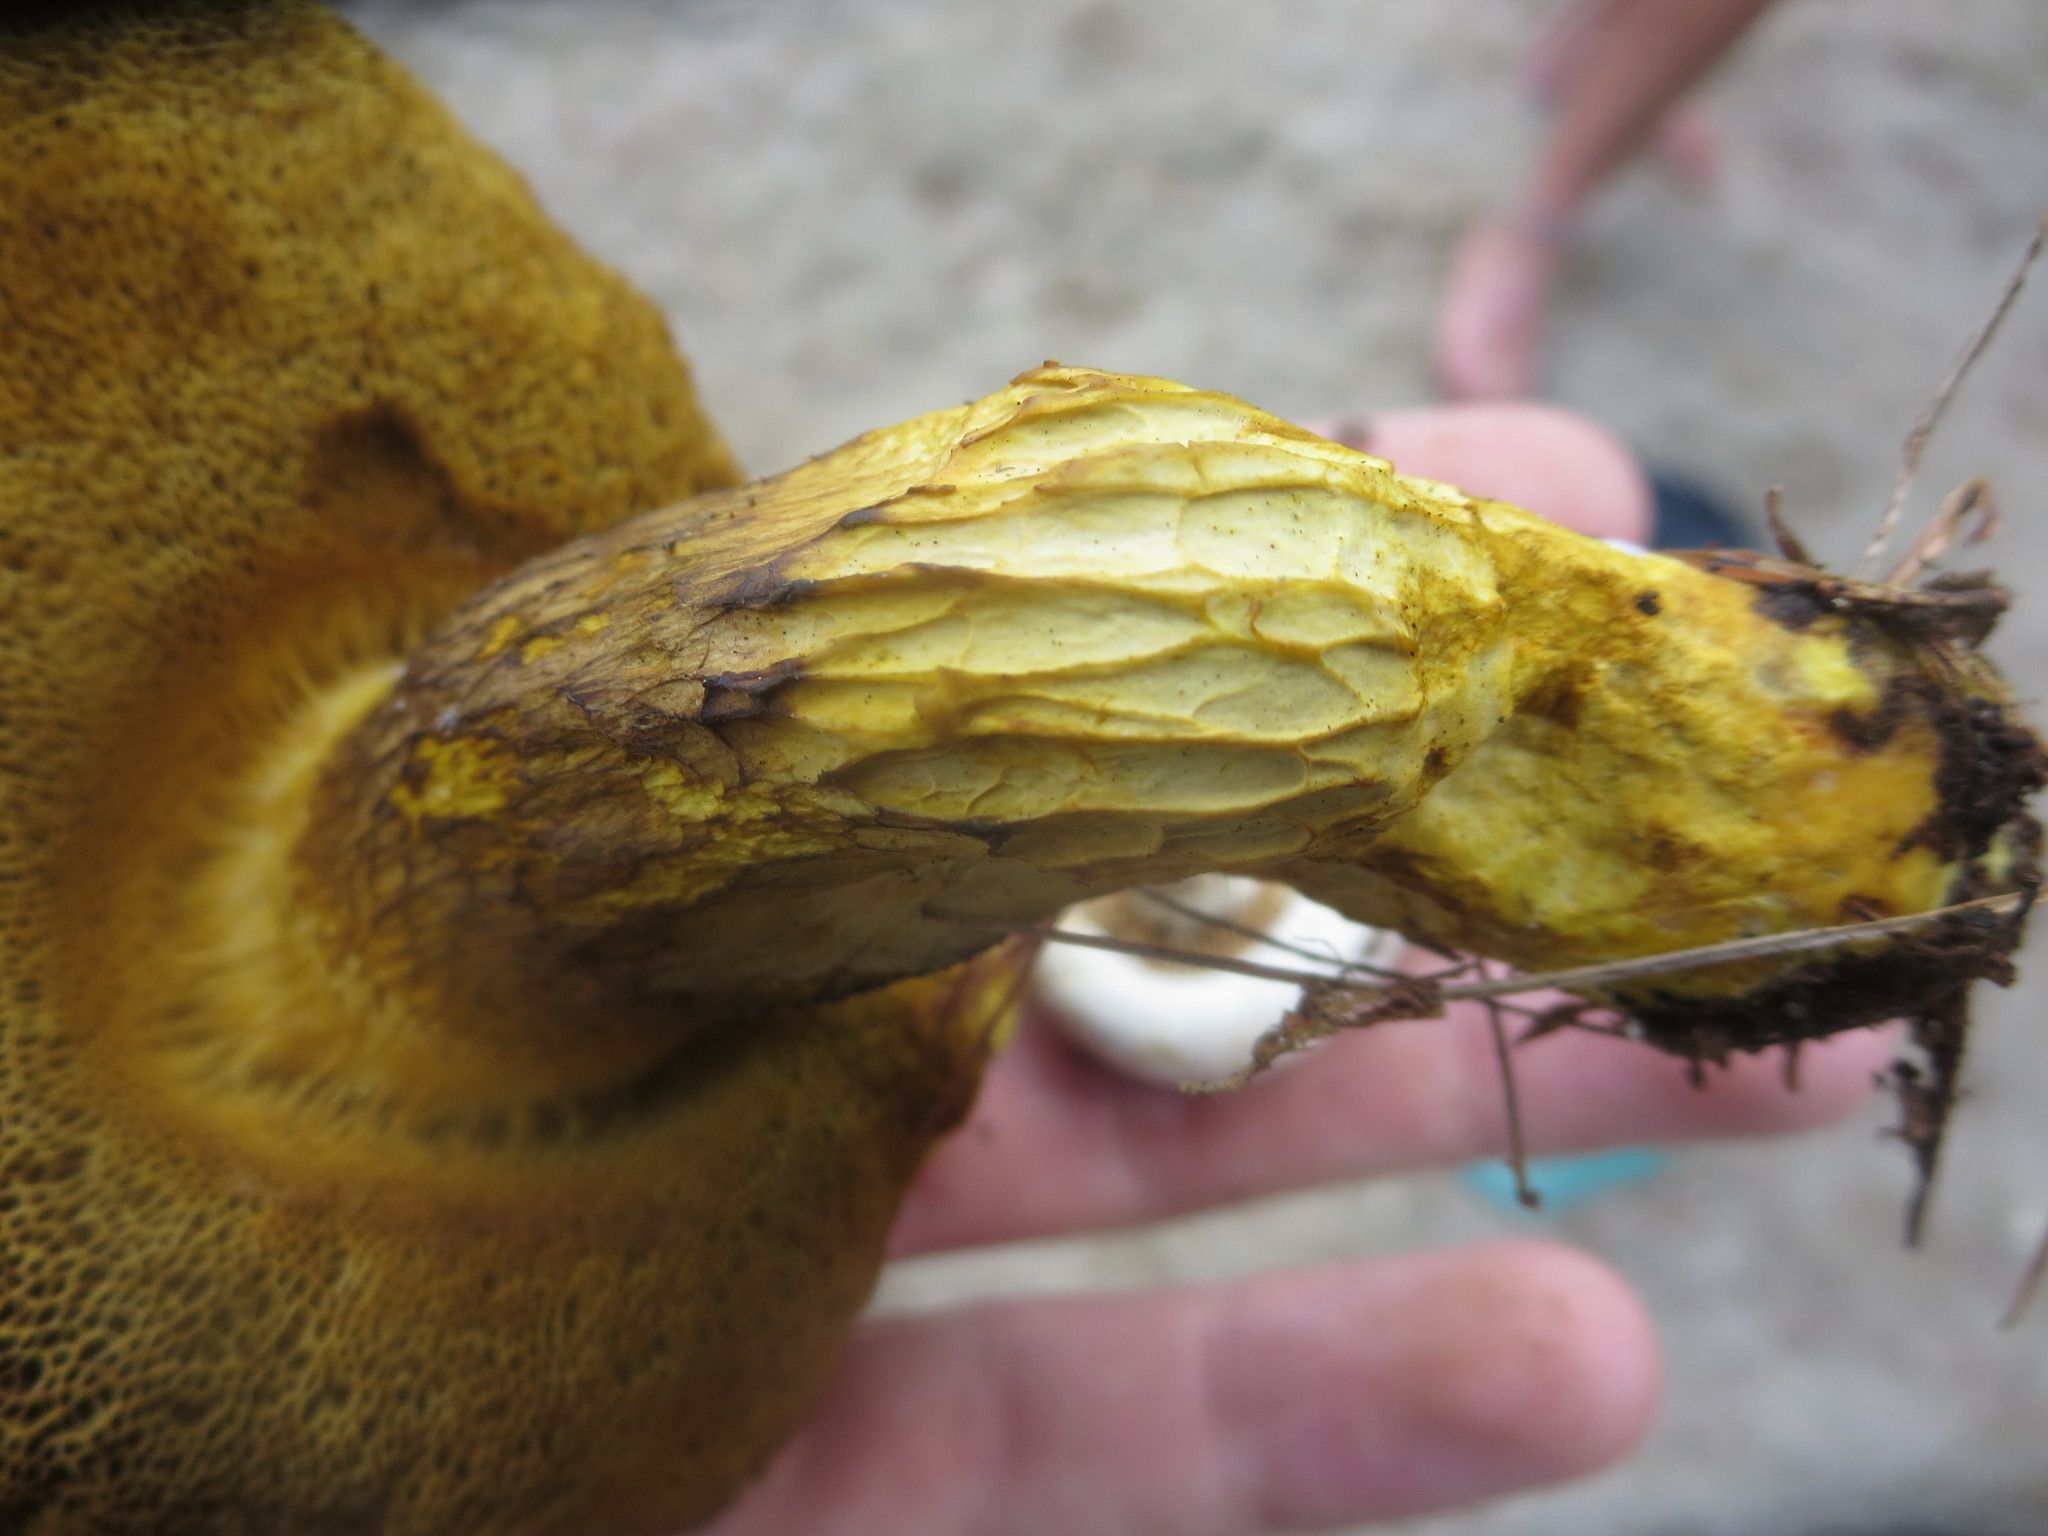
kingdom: Fungi
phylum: Basidiomycota
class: Agaricomycetes
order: Boletales
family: Boletaceae
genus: Retiboletus
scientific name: Retiboletus ornatipes
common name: Ornate-stalked bolete
